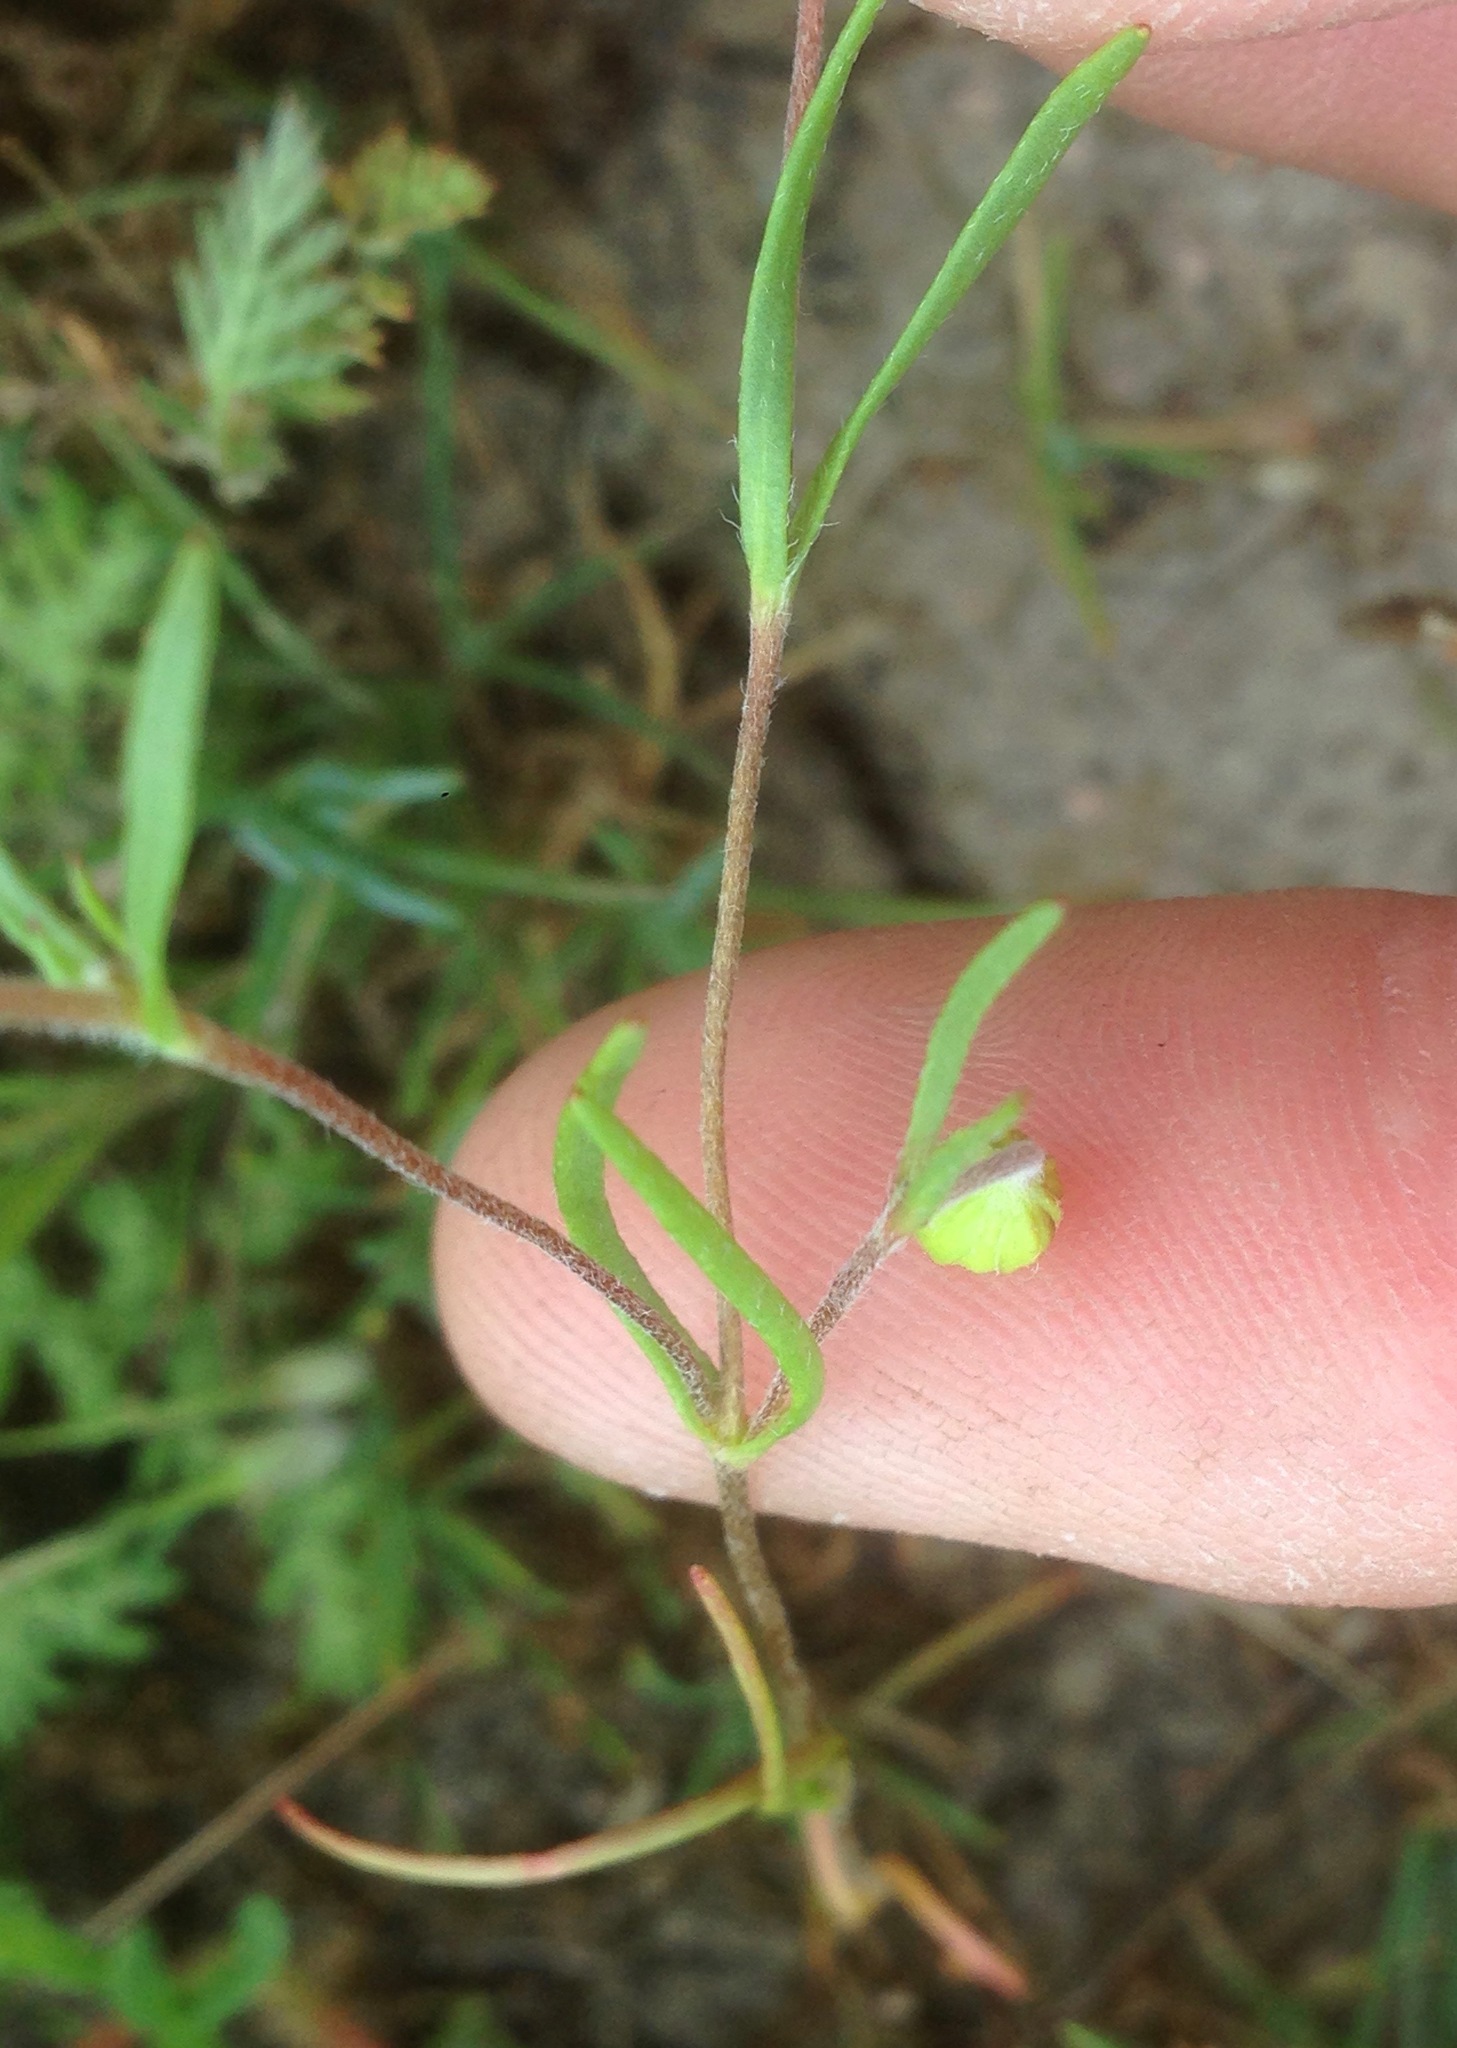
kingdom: Plantae
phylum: Tracheophyta
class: Magnoliopsida
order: Asterales
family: Asteraceae
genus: Lasthenia
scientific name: Lasthenia gracilis
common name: Common goldfields
